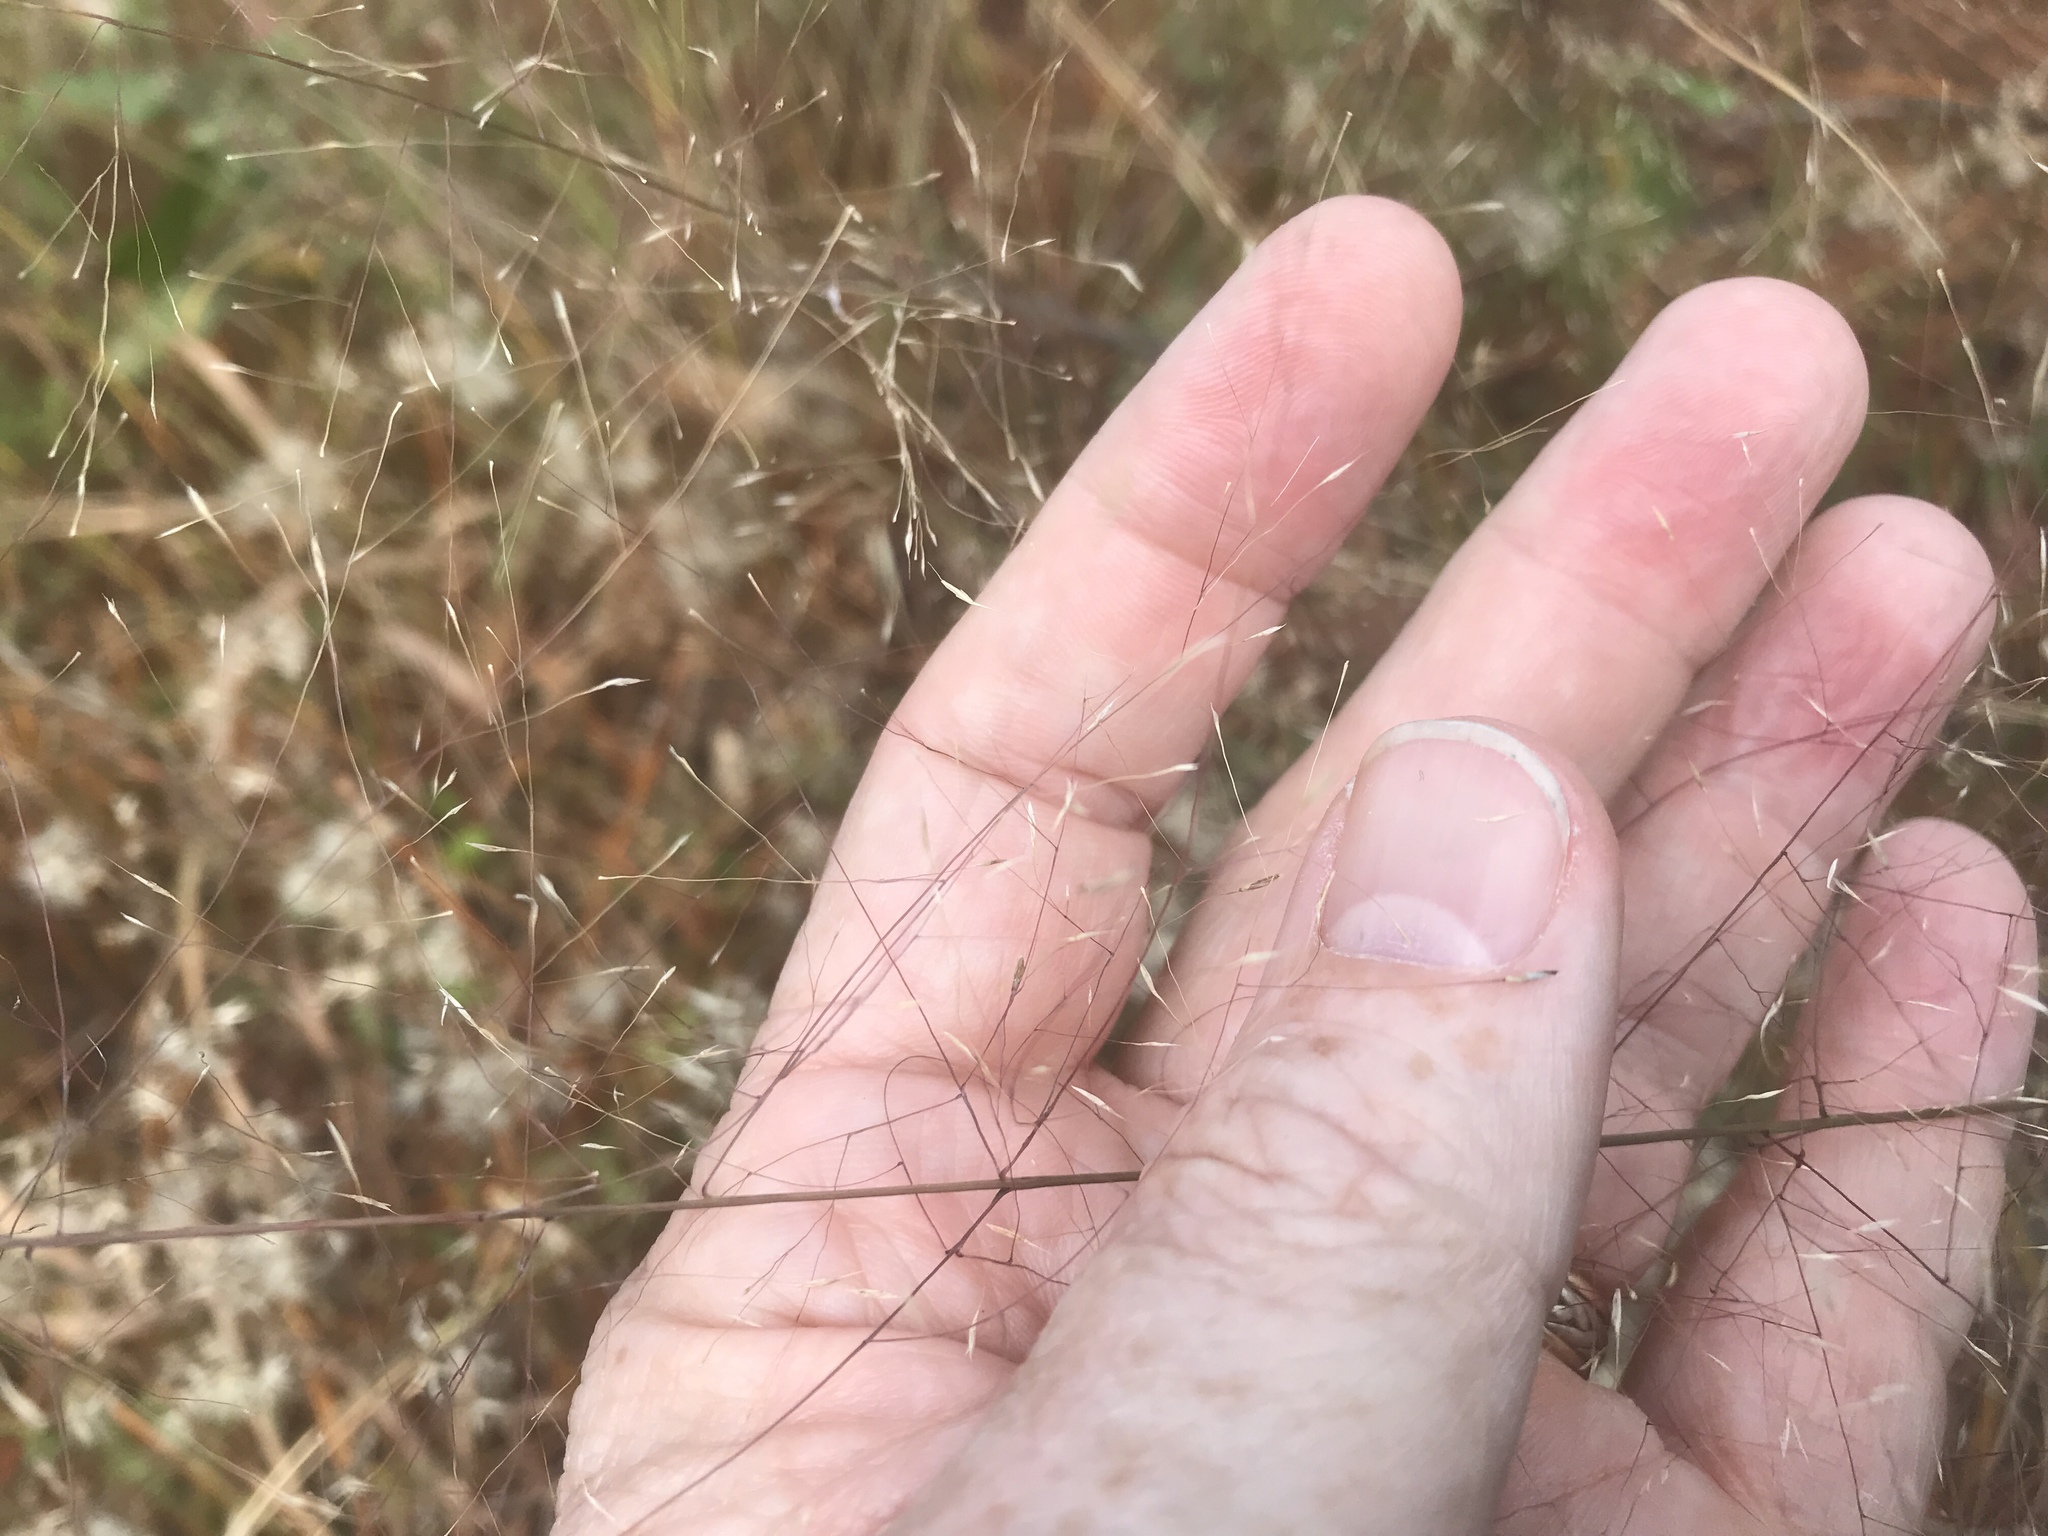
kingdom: Plantae
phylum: Tracheophyta
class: Liliopsida
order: Poales
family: Poaceae
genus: Muhlenbergia
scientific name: Muhlenbergia expansa
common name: Savannah hairgrass
